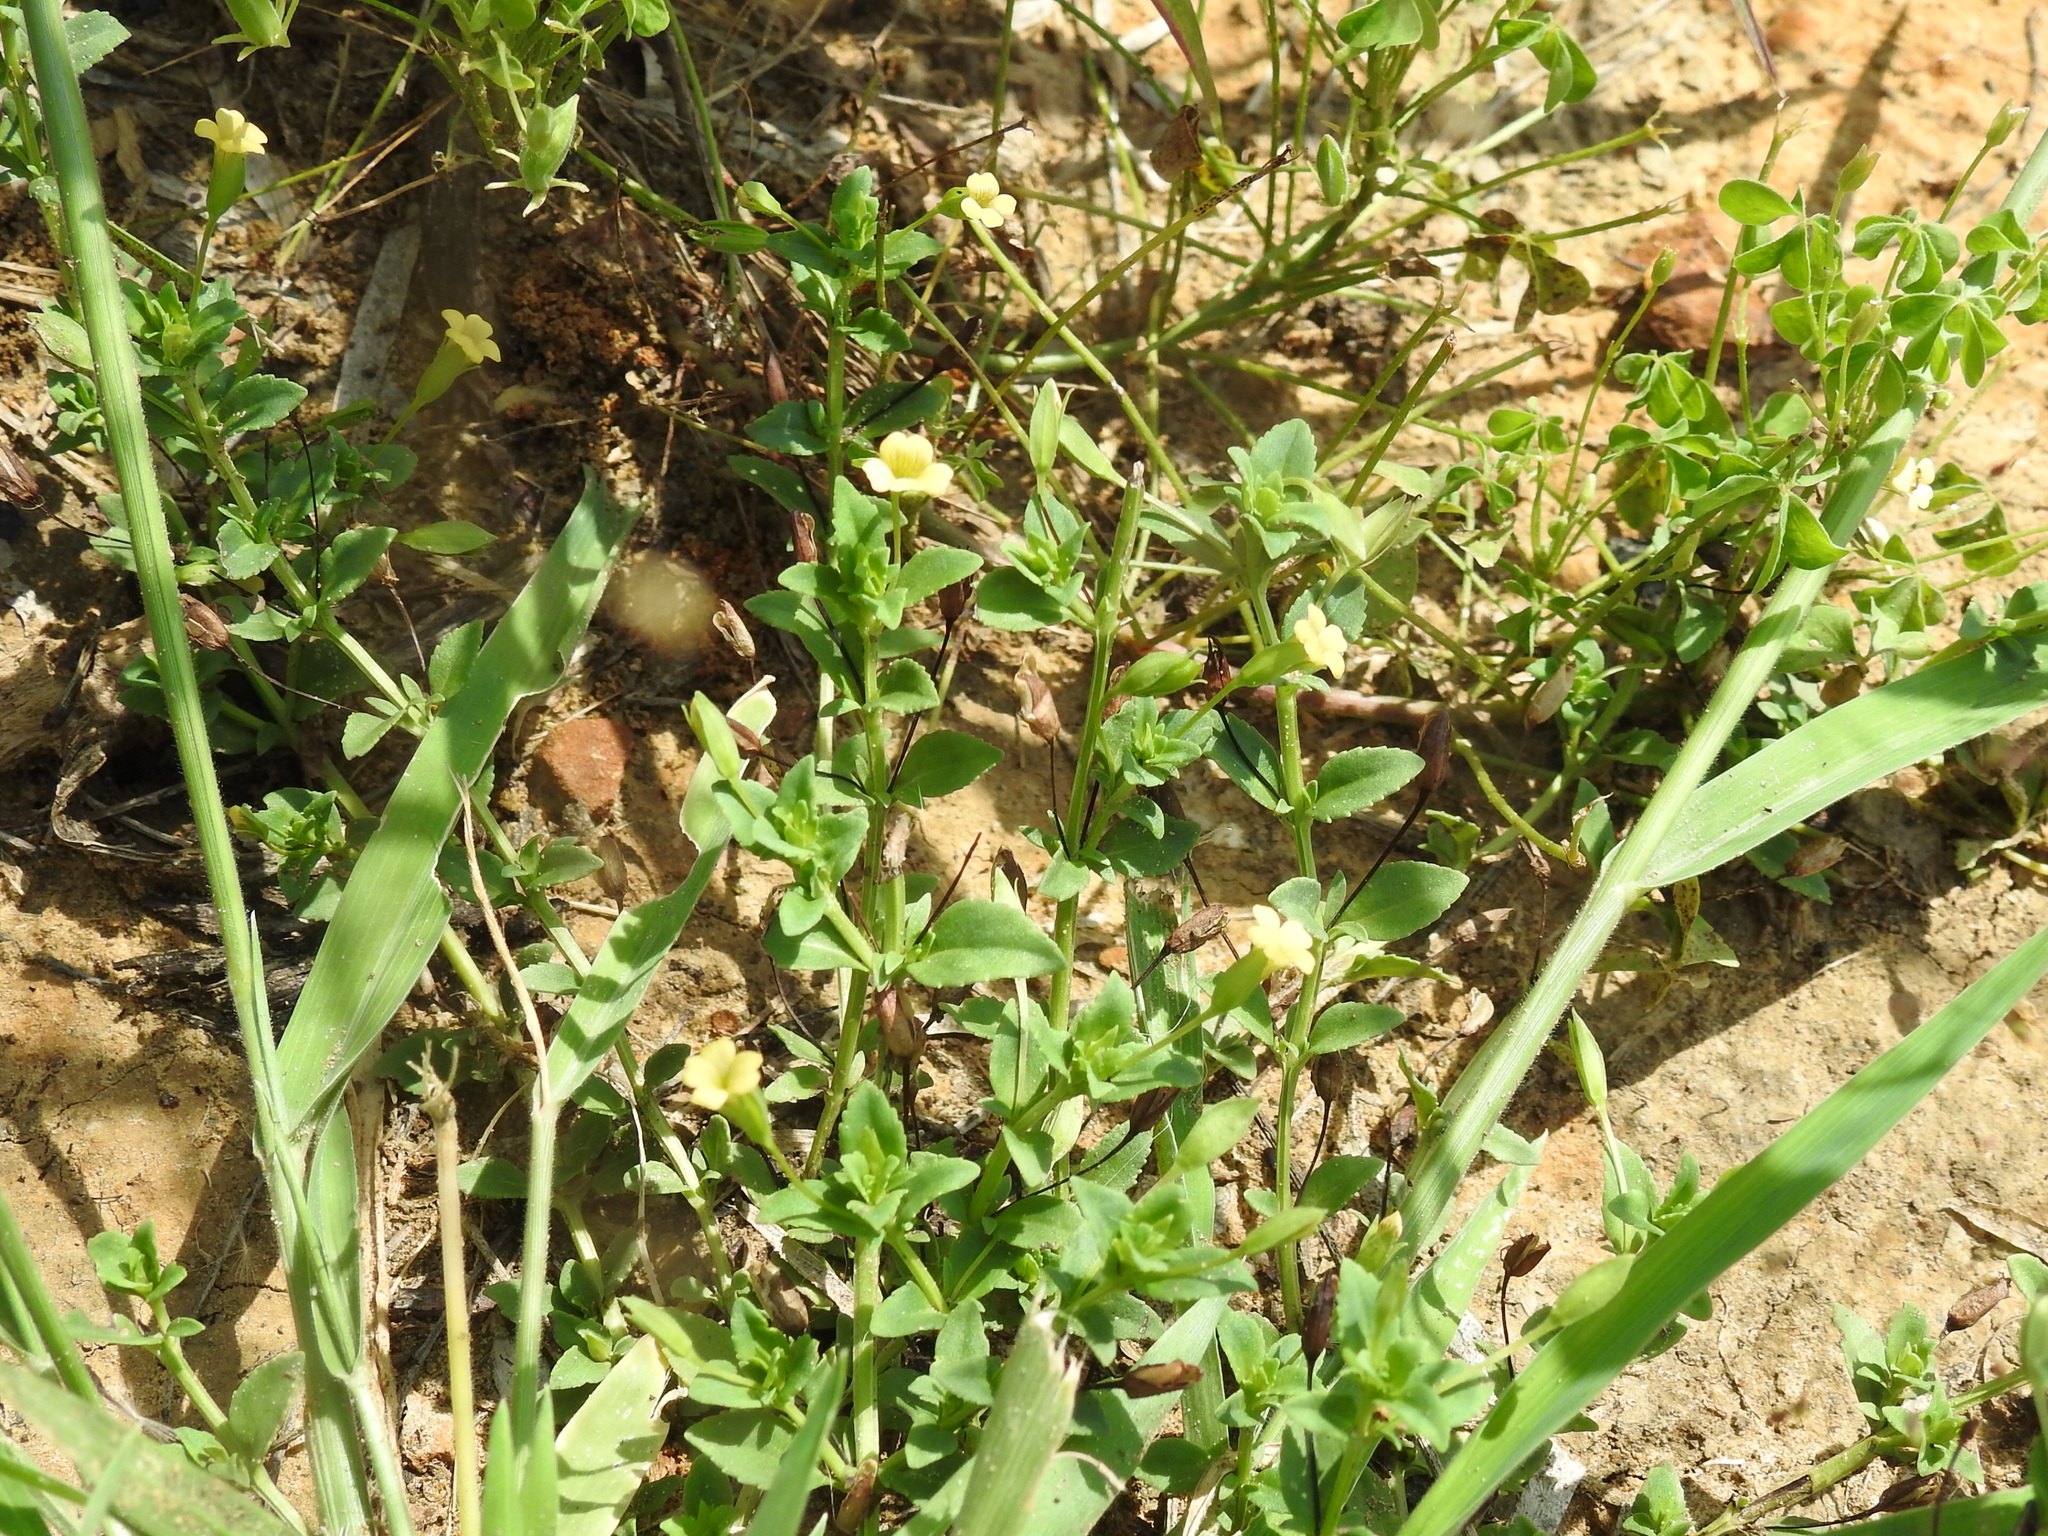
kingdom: Plantae
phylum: Tracheophyta
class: Magnoliopsida
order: Lamiales
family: Plantaginaceae
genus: Mecardonia
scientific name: Mecardonia procumbens
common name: Baby jump-up
